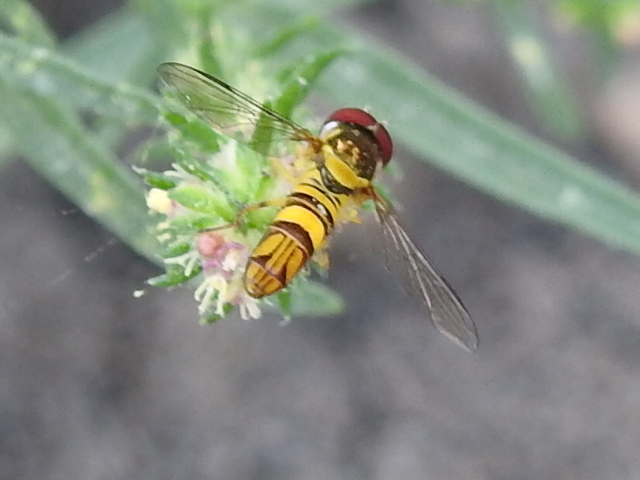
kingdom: Animalia
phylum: Arthropoda
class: Insecta
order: Diptera
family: Syrphidae
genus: Allograpta
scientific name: Allograpta obliqua
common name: Common oblique syrphid
